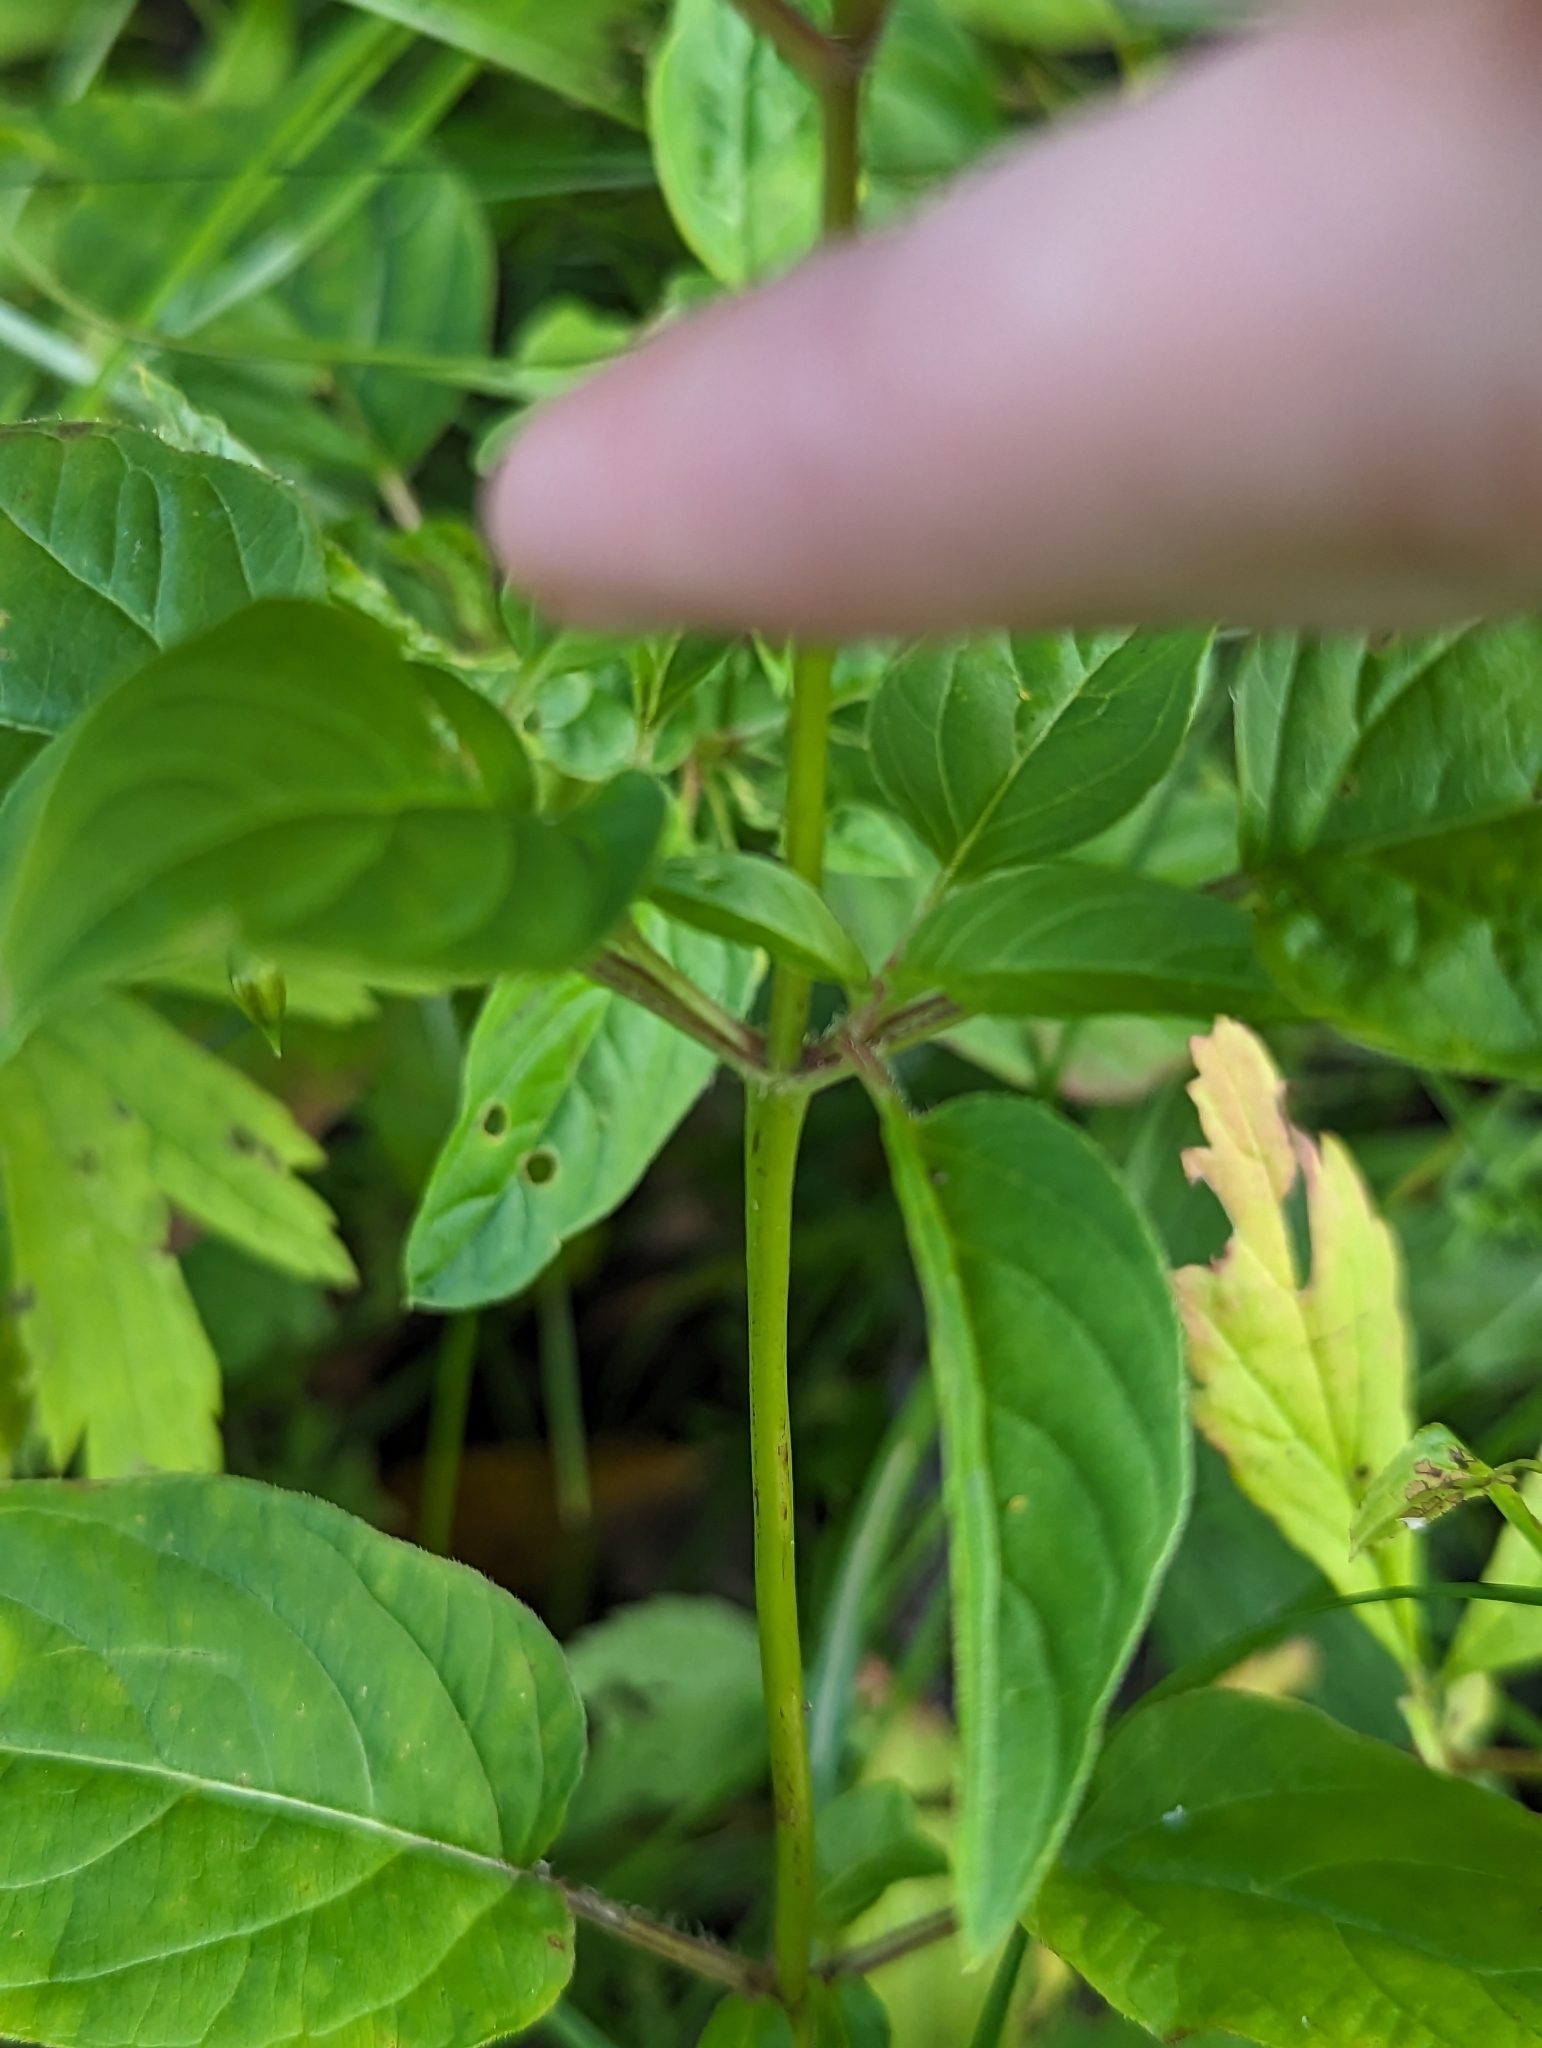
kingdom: Plantae
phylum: Tracheophyta
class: Magnoliopsida
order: Ericales
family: Primulaceae
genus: Lysimachia
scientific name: Lysimachia ciliata
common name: Fringed loosestrife
